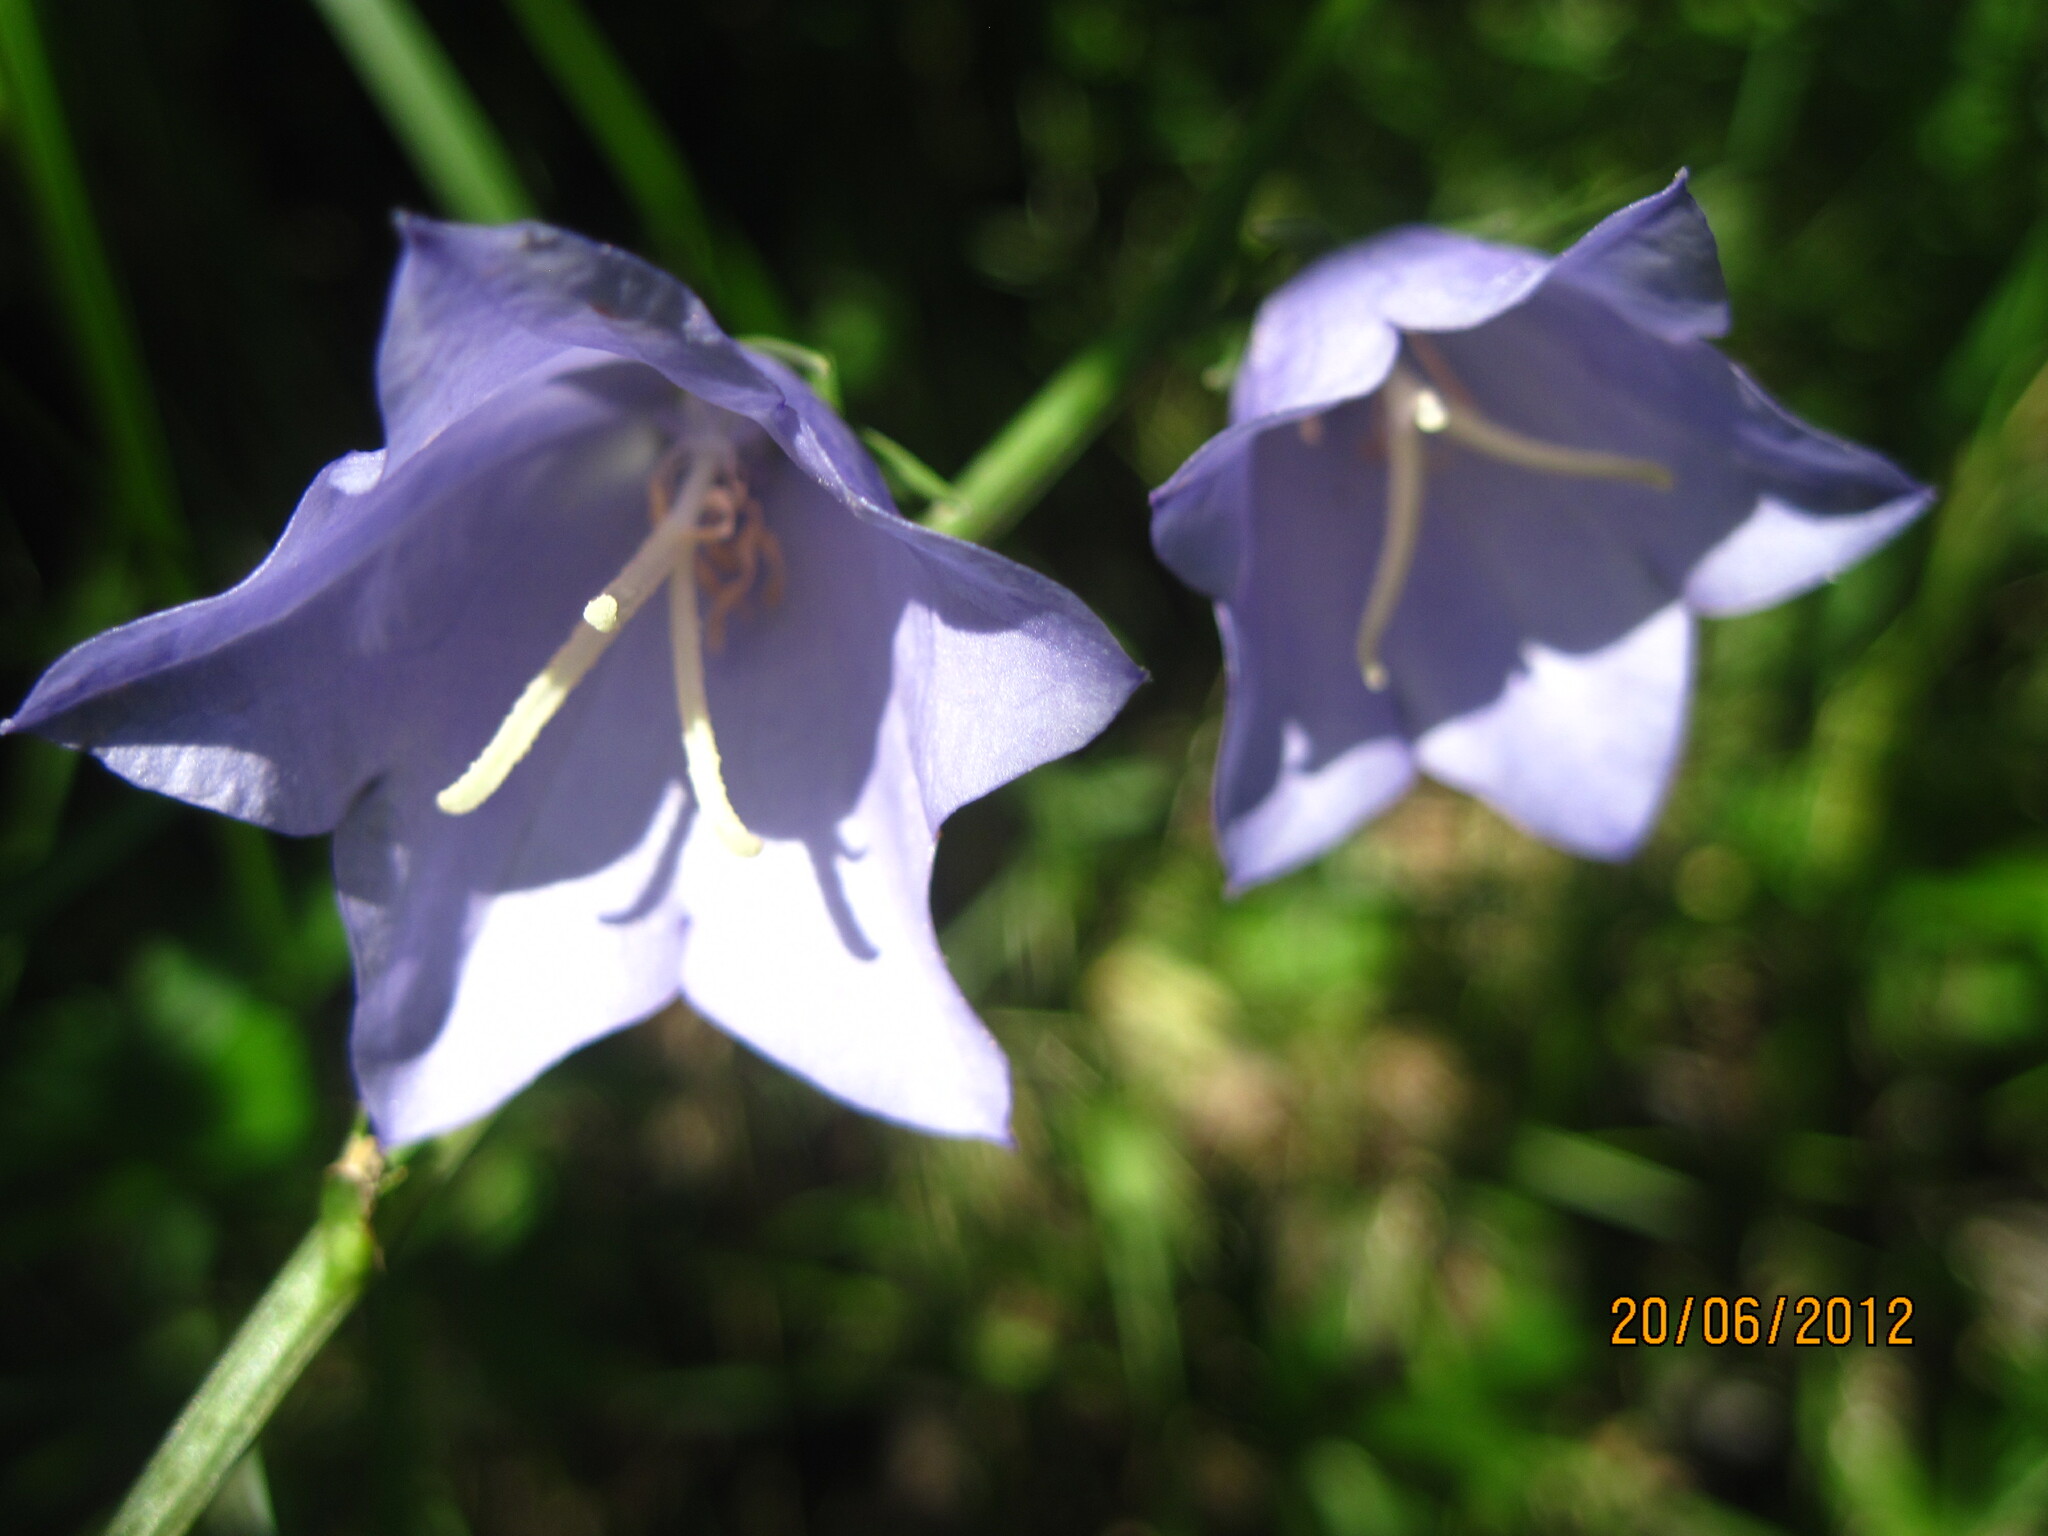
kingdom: Plantae
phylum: Tracheophyta
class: Magnoliopsida
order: Asterales
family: Campanulaceae
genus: Campanula
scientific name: Campanula persicifolia
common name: Peach-leaved bellflower
